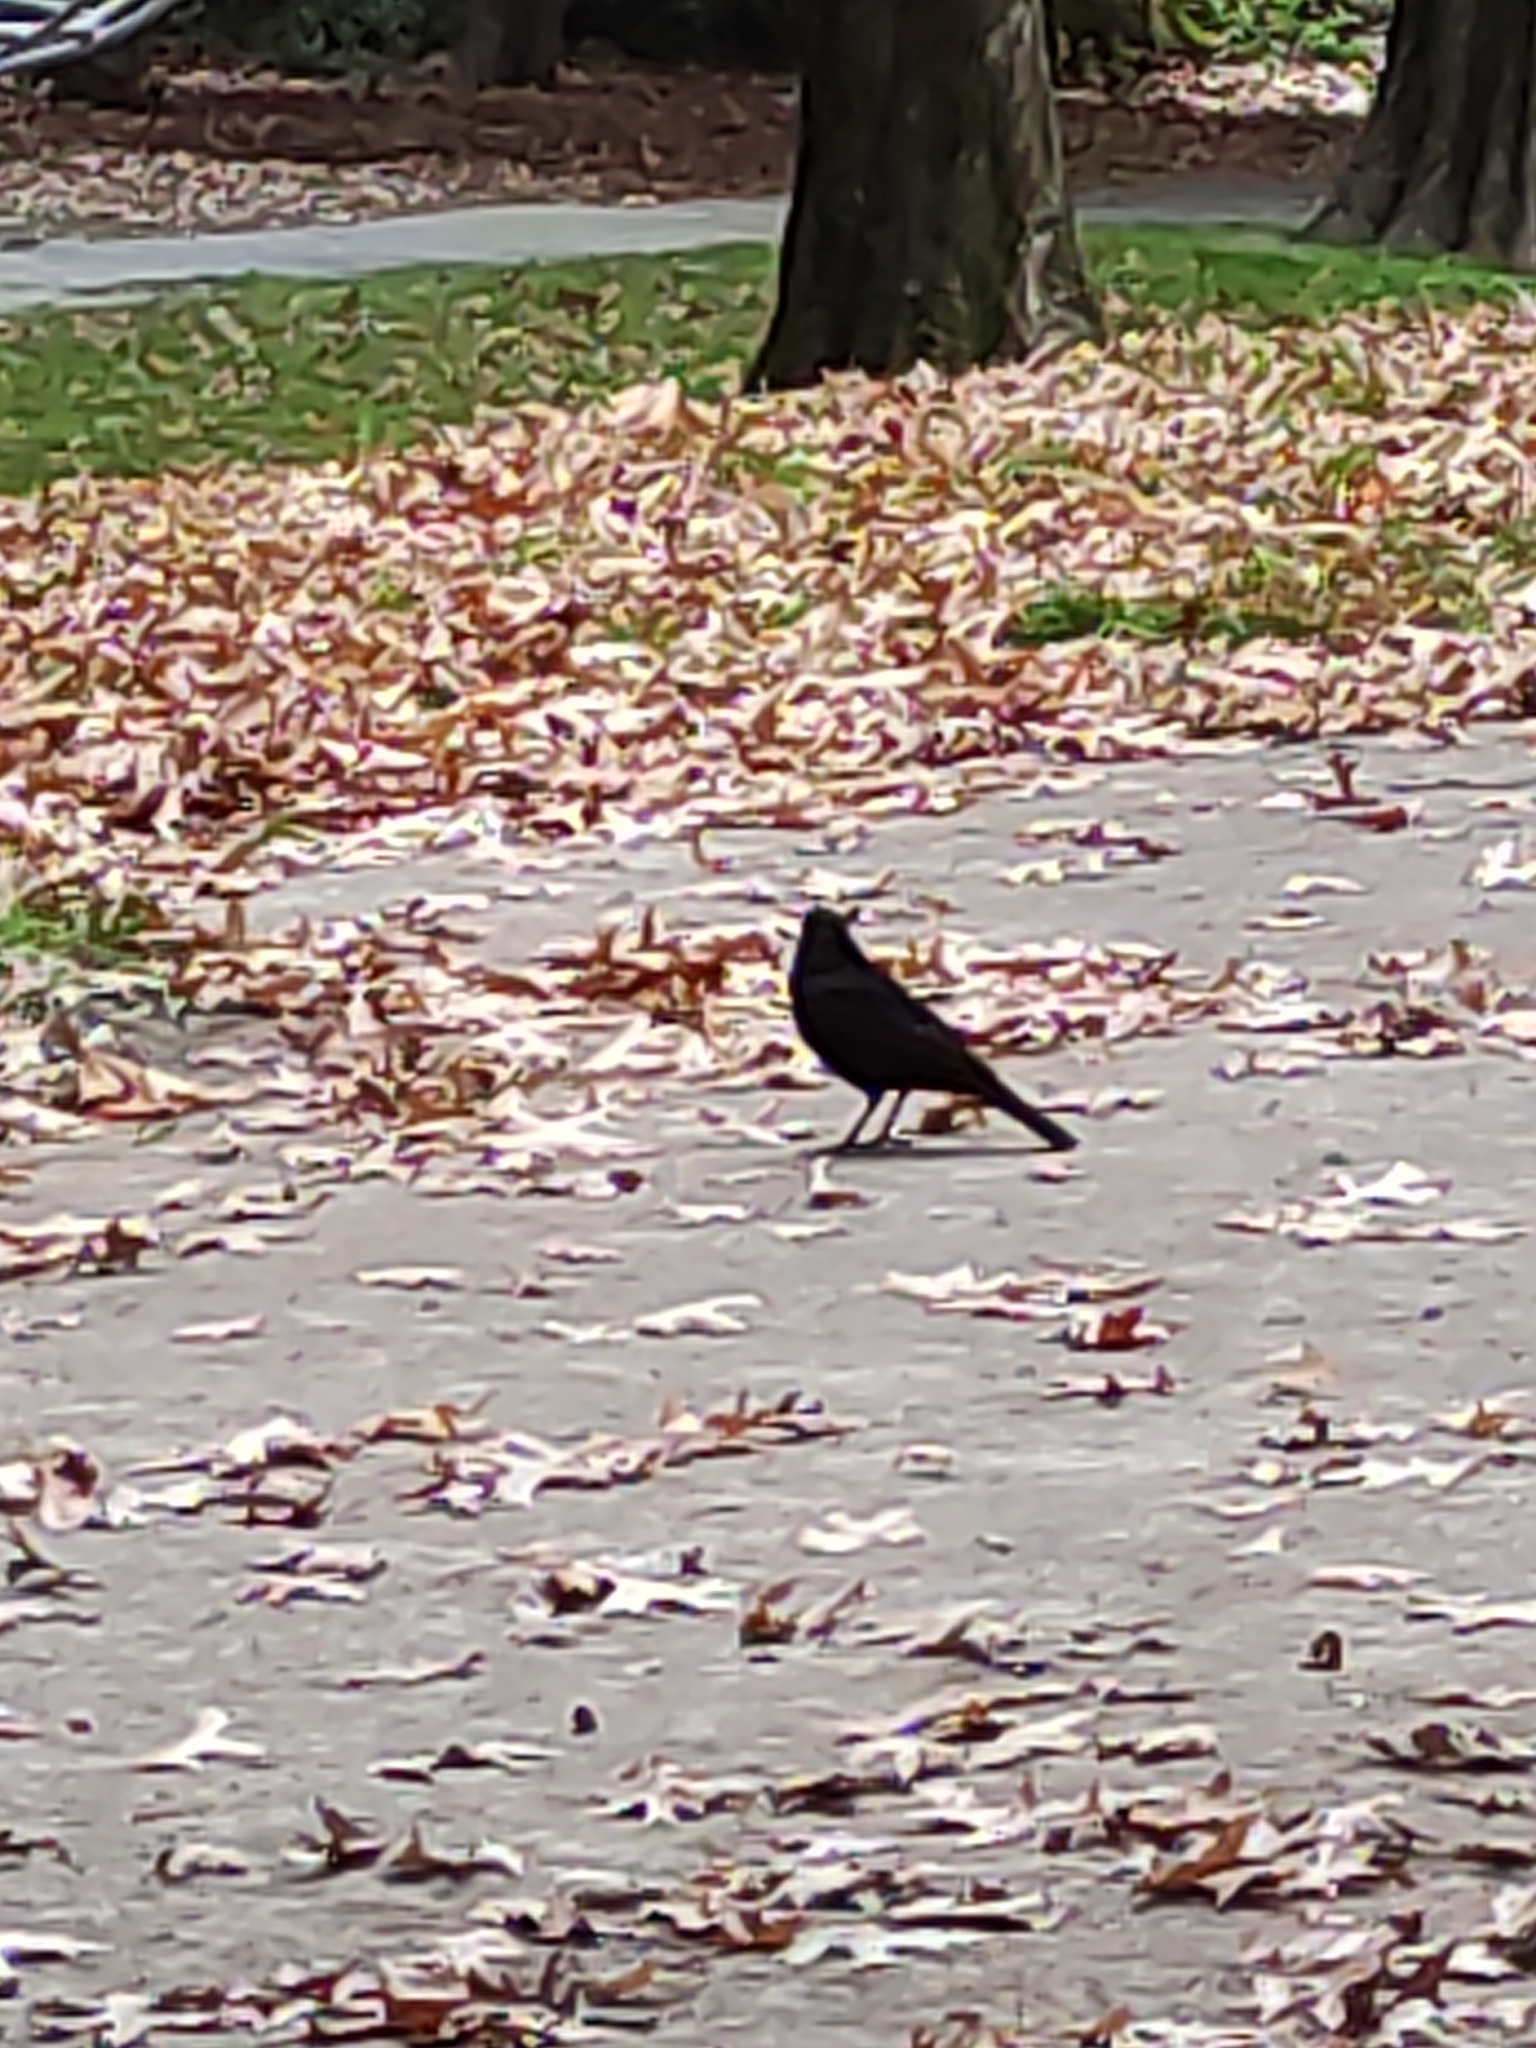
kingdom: Animalia
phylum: Chordata
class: Aves
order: Passeriformes
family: Turdidae
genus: Turdus
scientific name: Turdus merula
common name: Common blackbird
